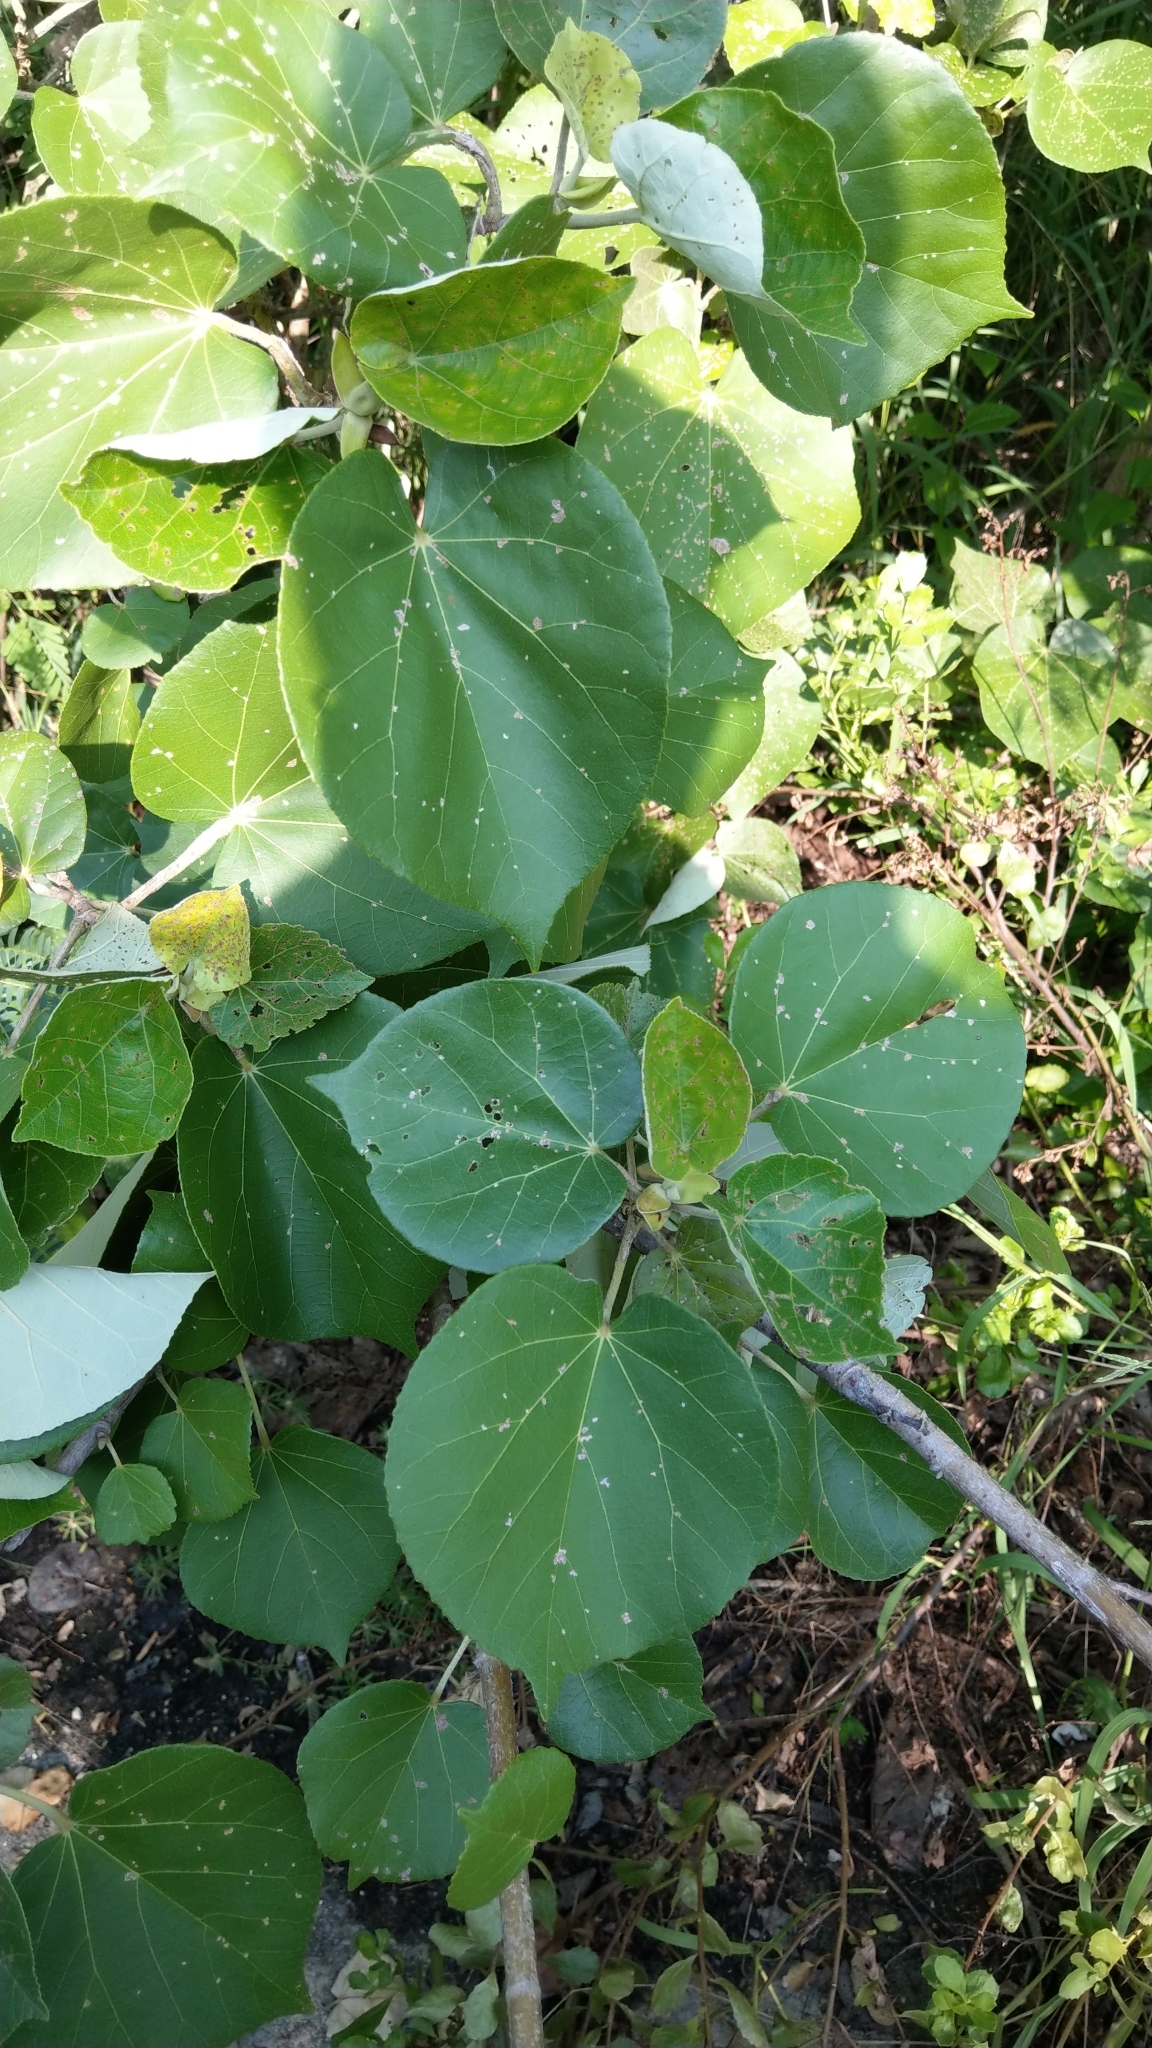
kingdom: Plantae
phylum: Tracheophyta
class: Magnoliopsida
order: Malvales
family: Malvaceae
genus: Talipariti
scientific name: Talipariti tiliaceum
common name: Sea hibiscus
